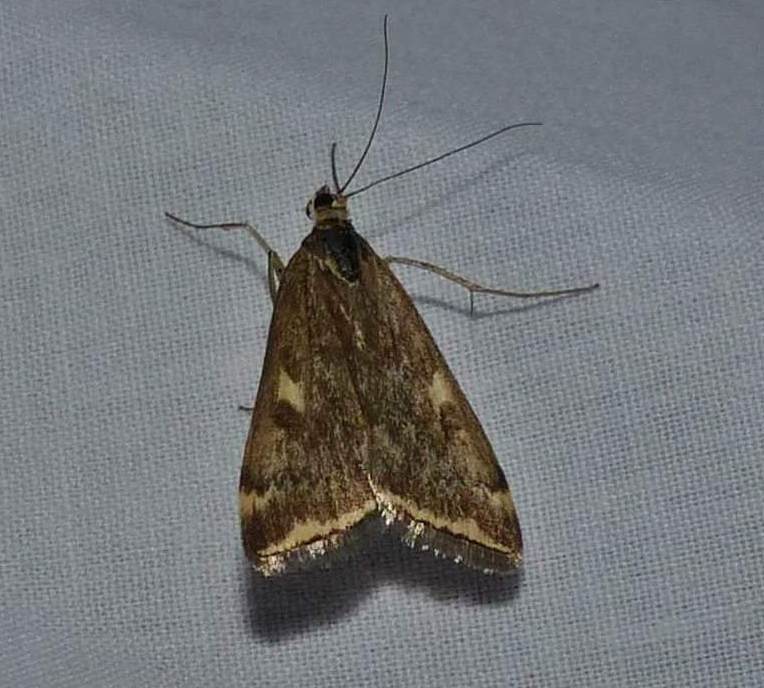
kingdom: Animalia
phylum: Arthropoda
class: Insecta
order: Lepidoptera
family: Crambidae
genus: Loxostege
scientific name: Loxostege
